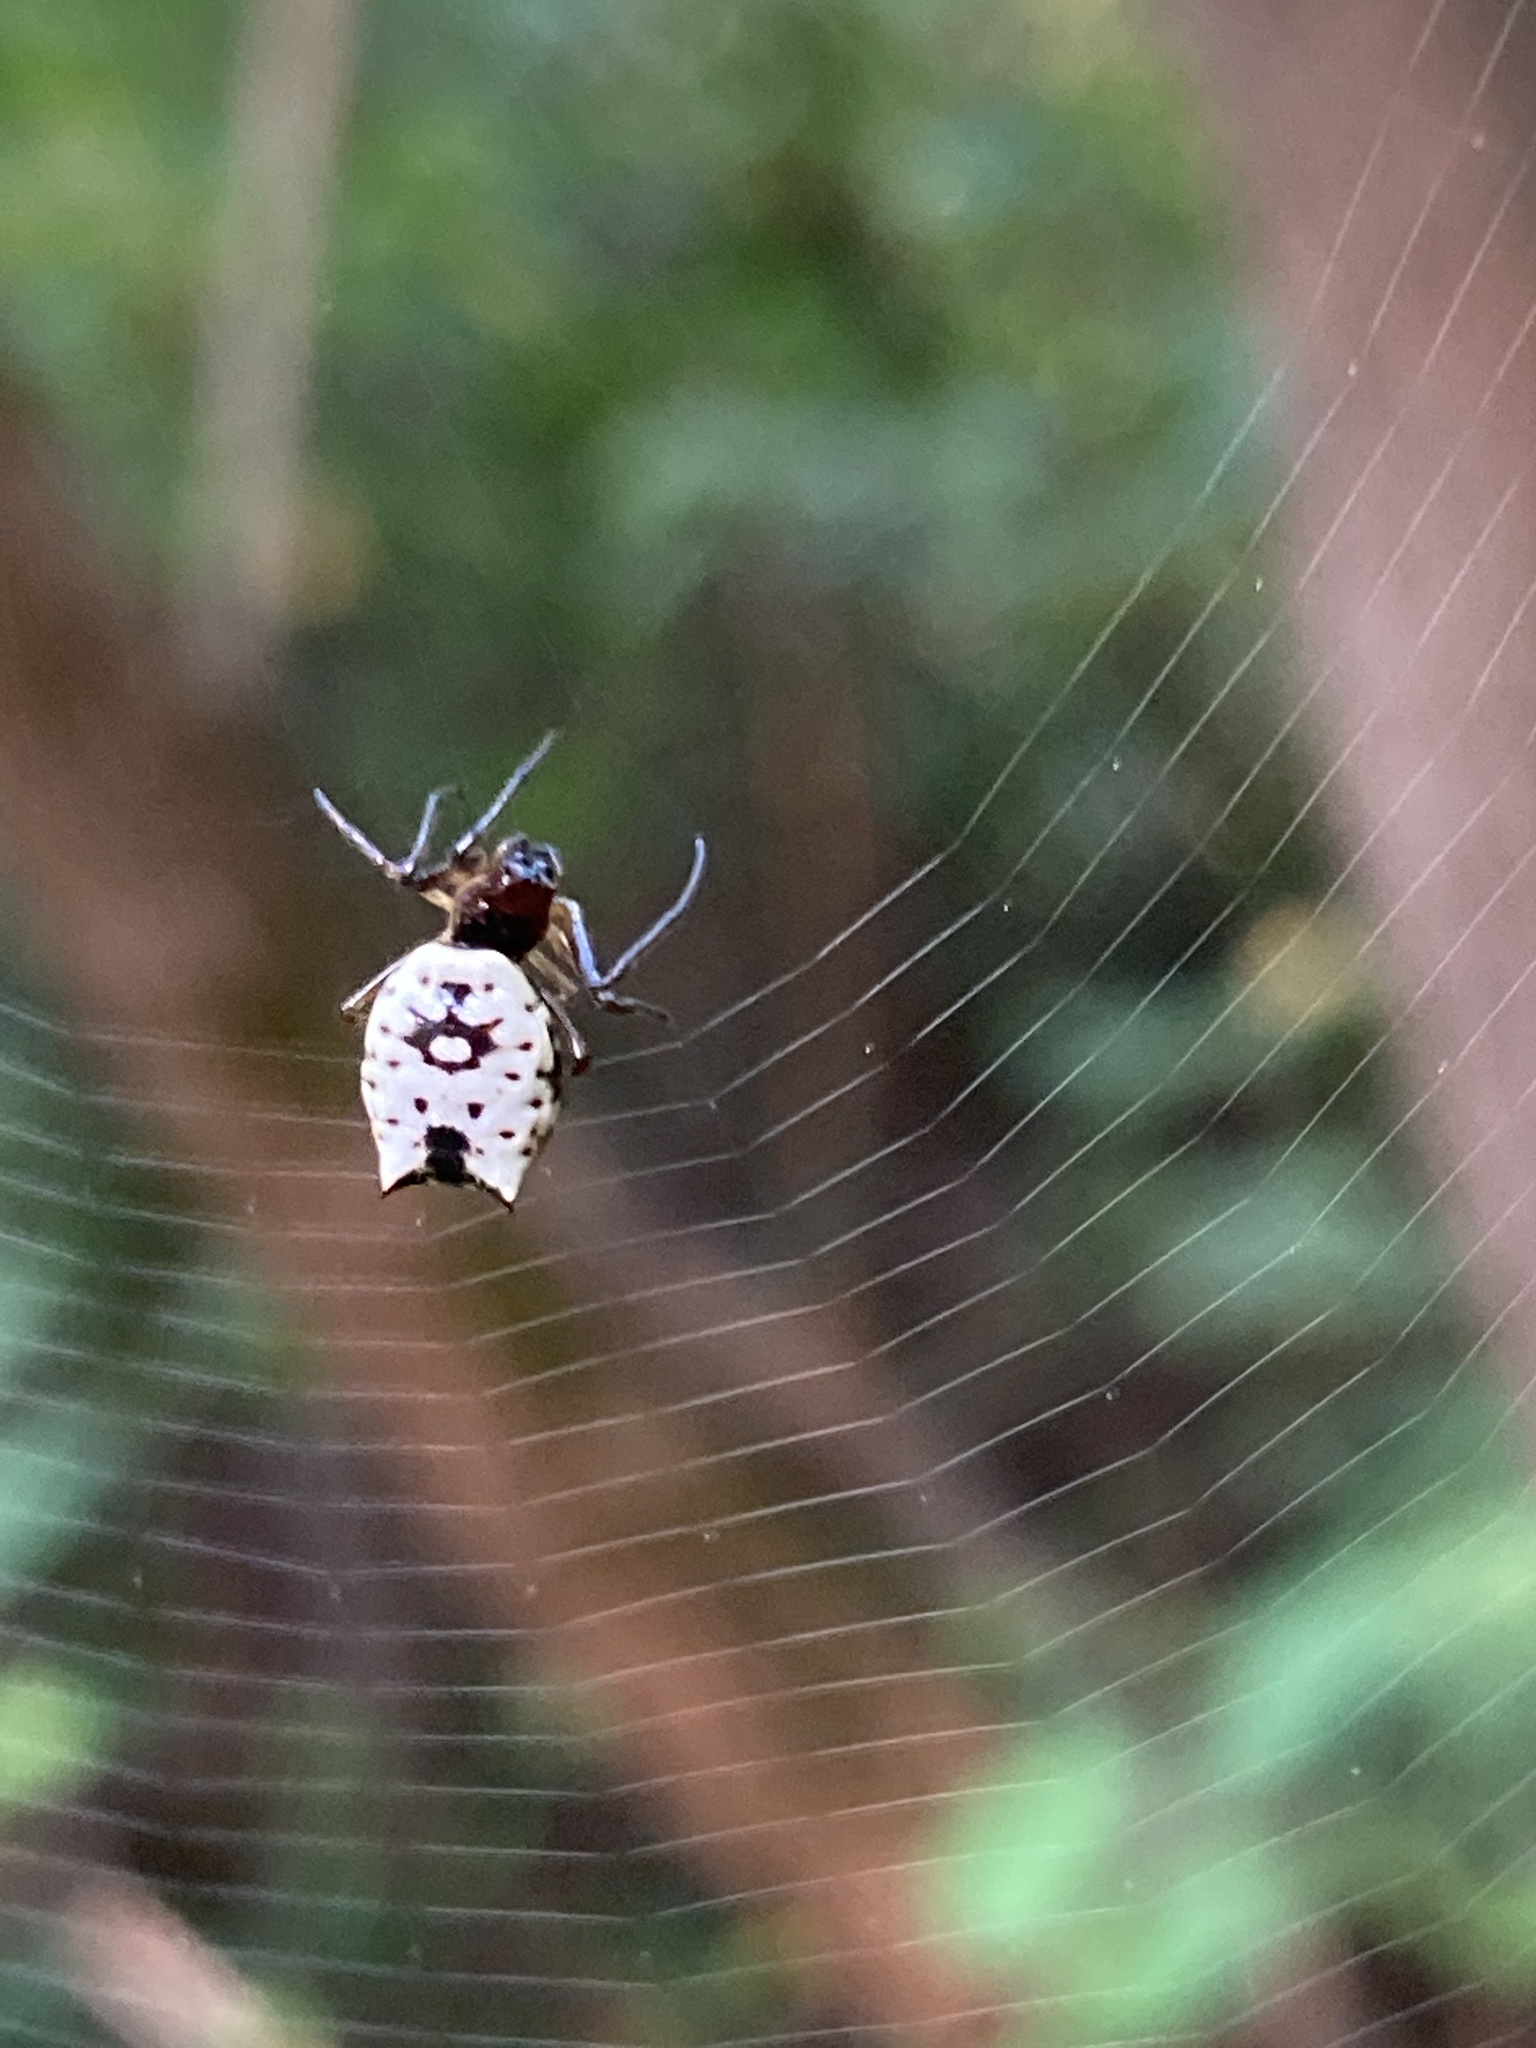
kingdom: Animalia
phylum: Arthropoda
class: Arachnida
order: Araneae
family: Araneidae
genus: Micrathena
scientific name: Micrathena mitrata
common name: Orb weavers
